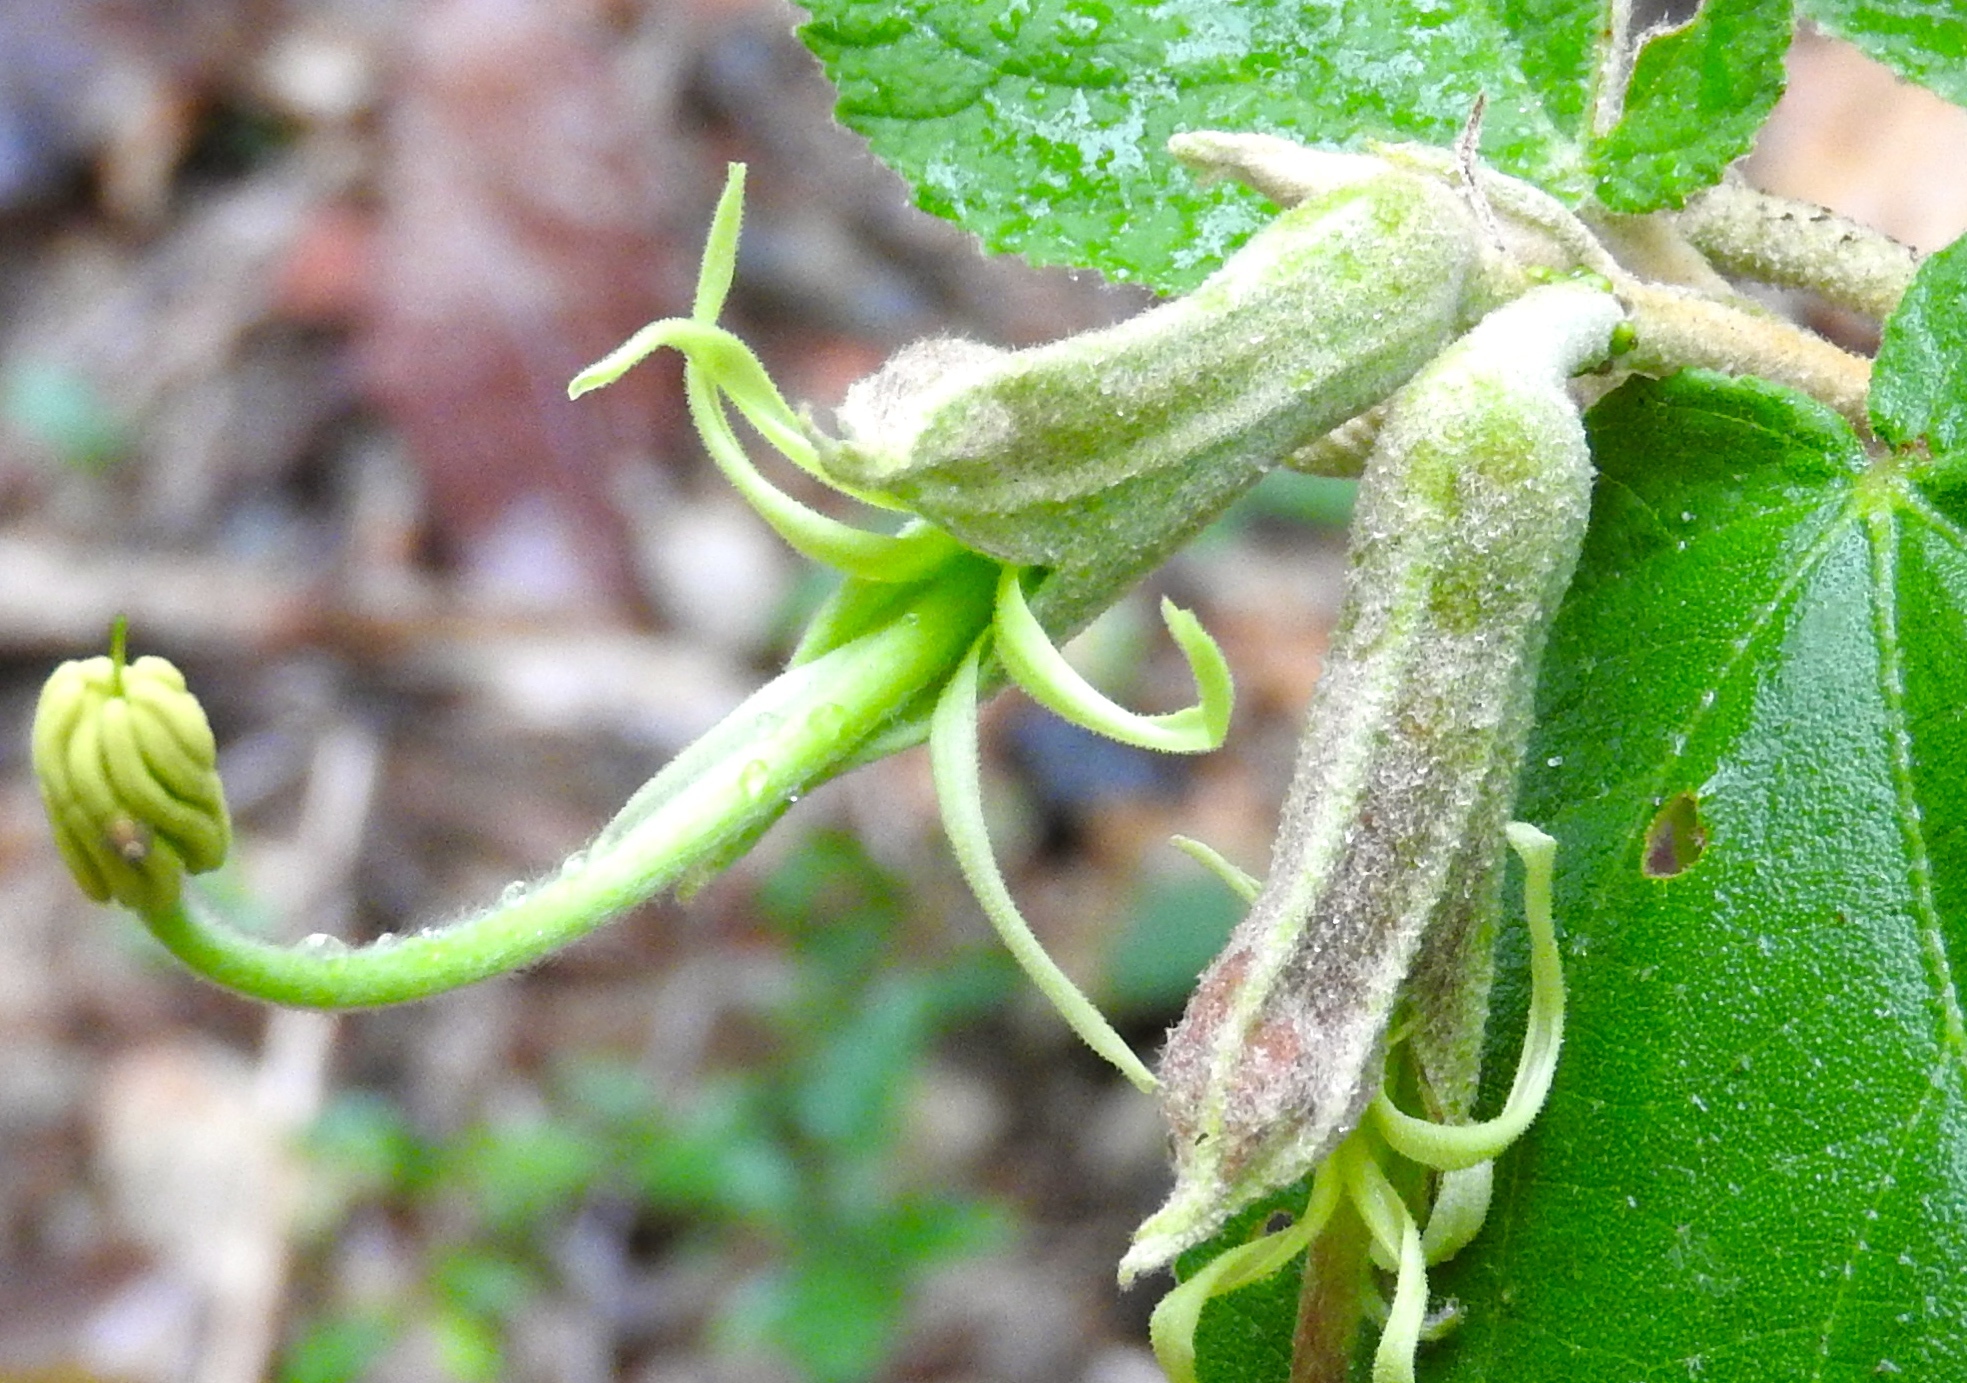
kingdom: Plantae
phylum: Tracheophyta
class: Magnoliopsida
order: Malvales
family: Malvaceae
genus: Helicteres
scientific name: Helicteres baruensis
